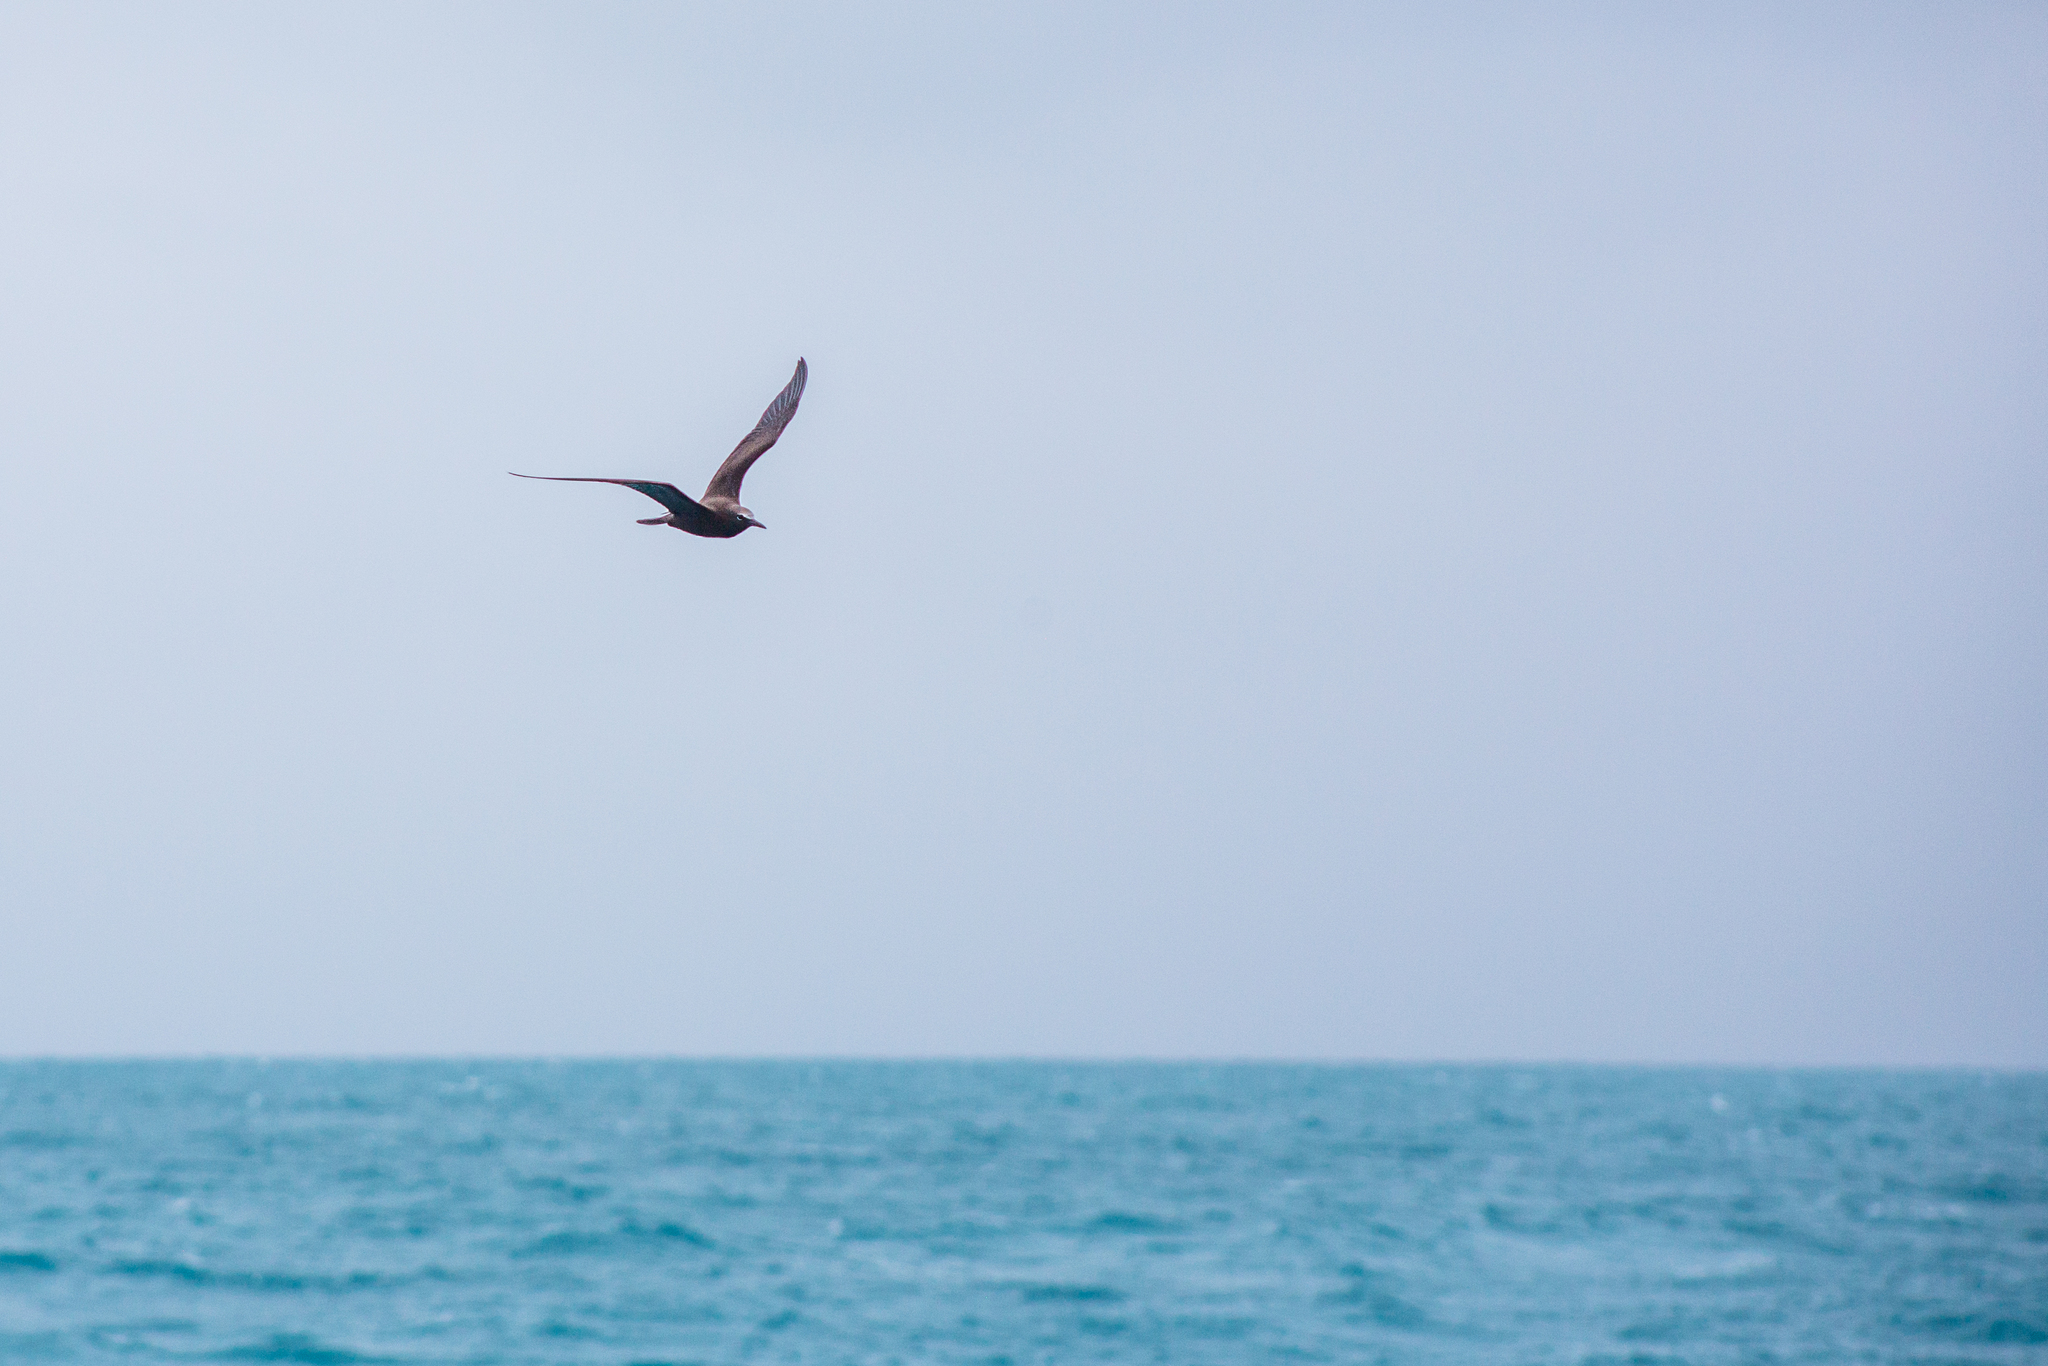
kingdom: Animalia
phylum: Chordata
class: Aves
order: Charadriiformes
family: Laridae
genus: Anous
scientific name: Anous stolidus
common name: Brown noddy
